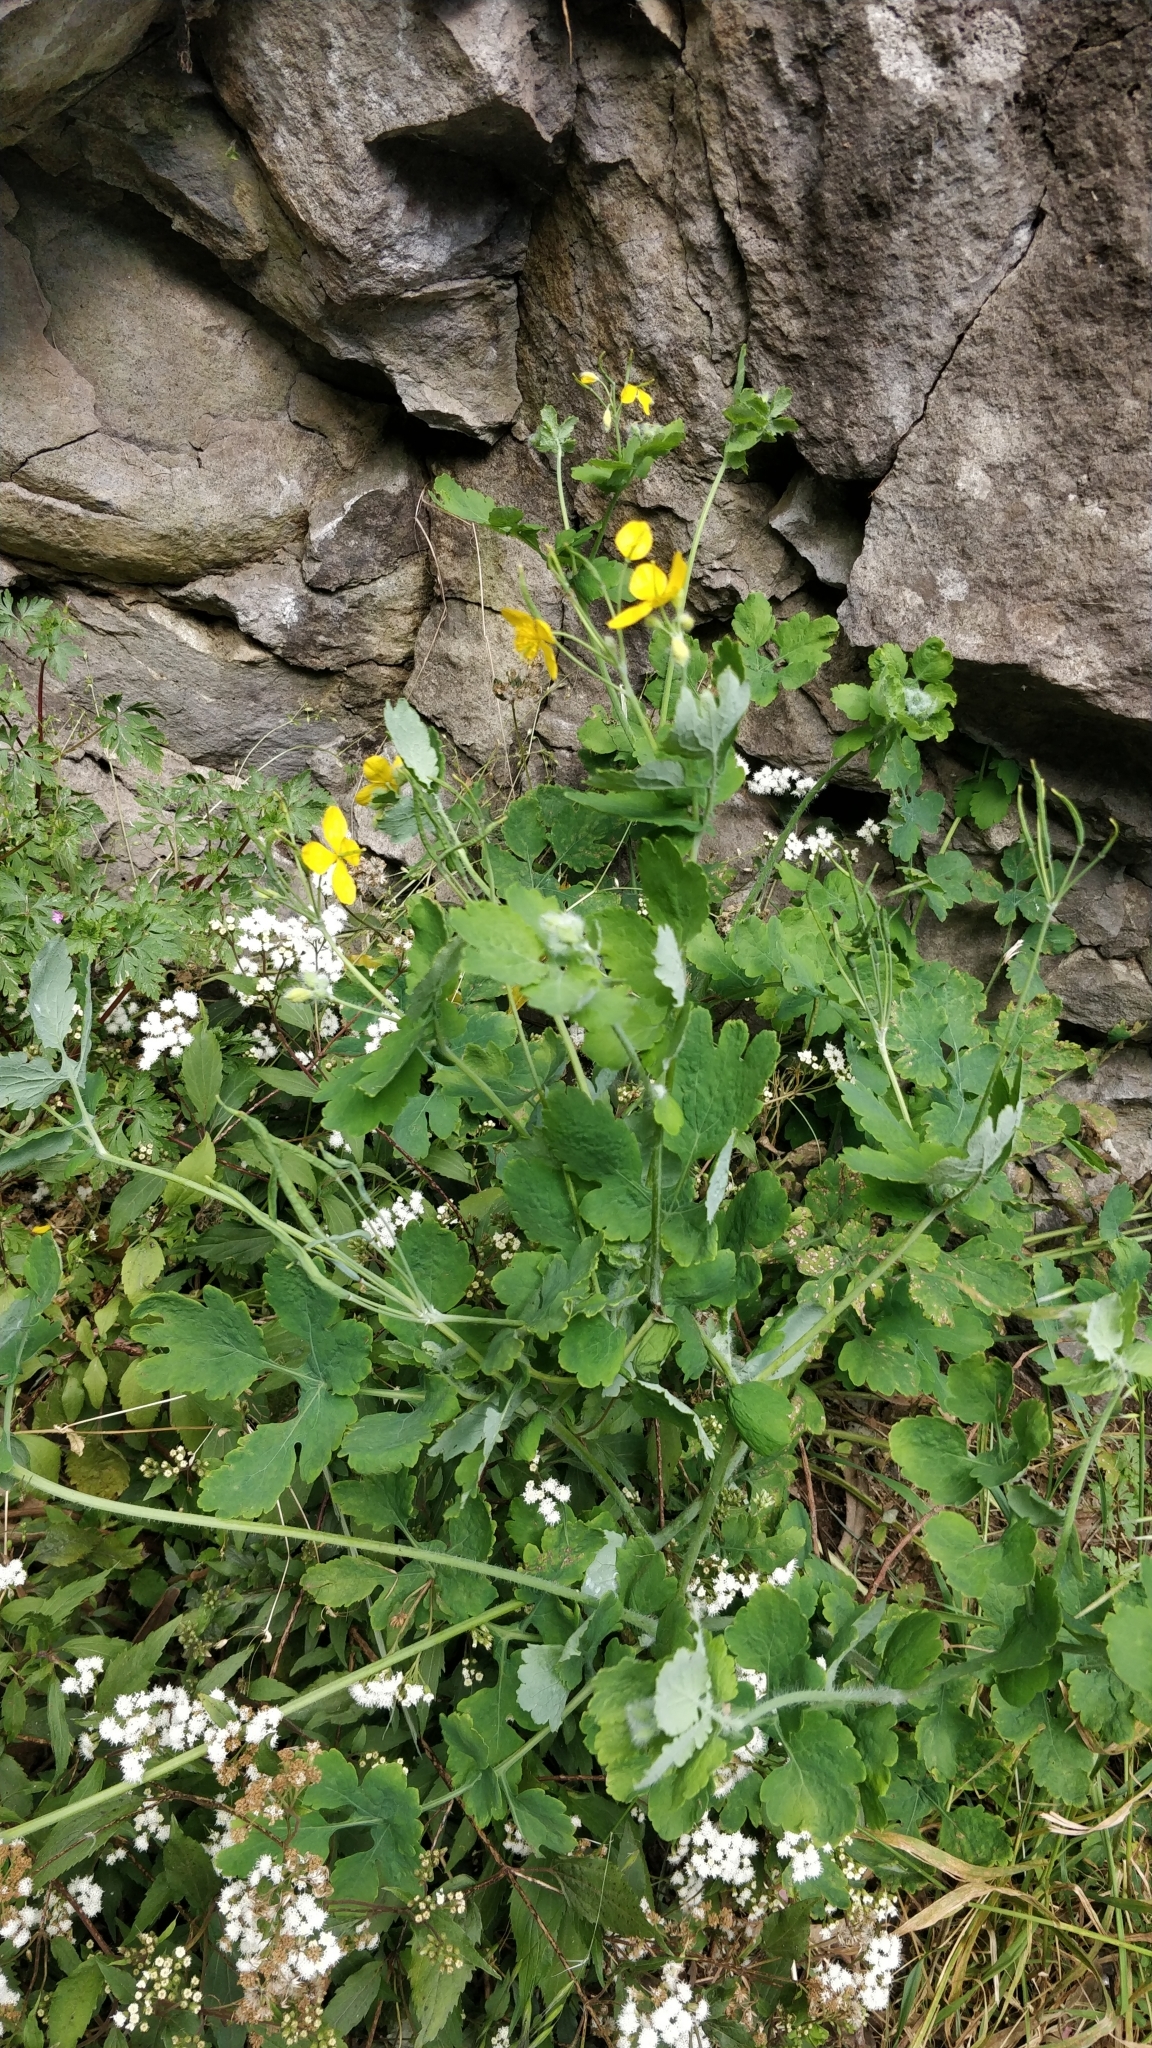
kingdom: Plantae
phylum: Tracheophyta
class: Magnoliopsida
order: Ranunculales
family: Papaveraceae
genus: Chelidonium
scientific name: Chelidonium majus
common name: Greater celandine
